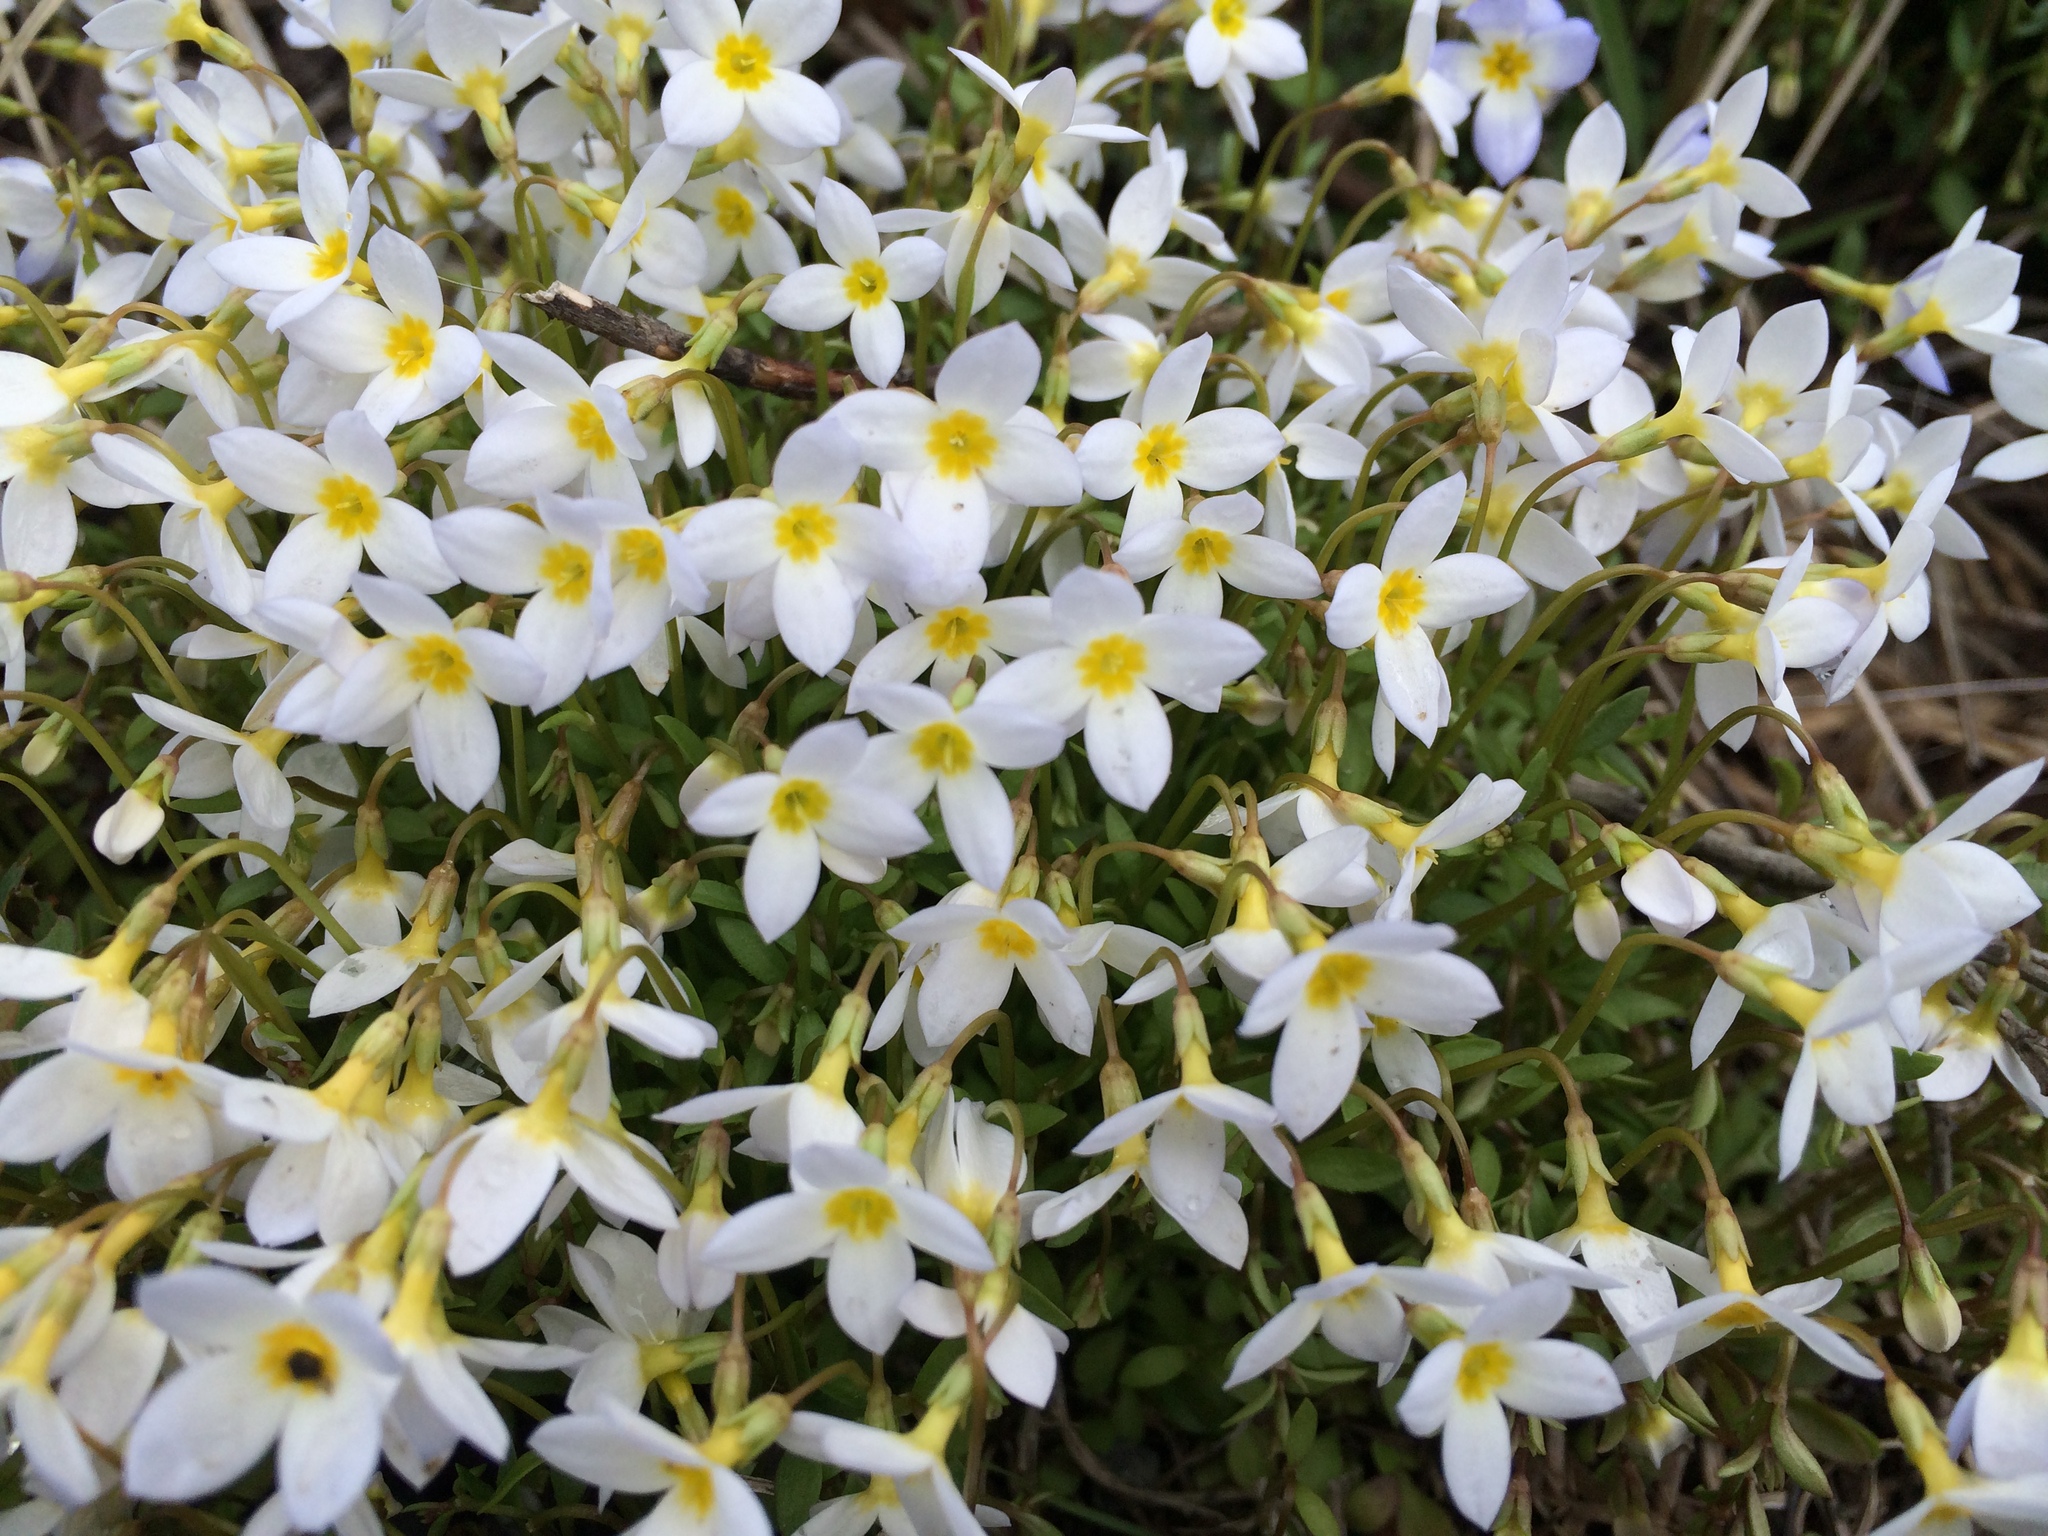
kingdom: Plantae
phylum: Tracheophyta
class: Magnoliopsida
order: Gentianales
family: Rubiaceae
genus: Houstonia
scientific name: Houstonia caerulea
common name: Bluets
